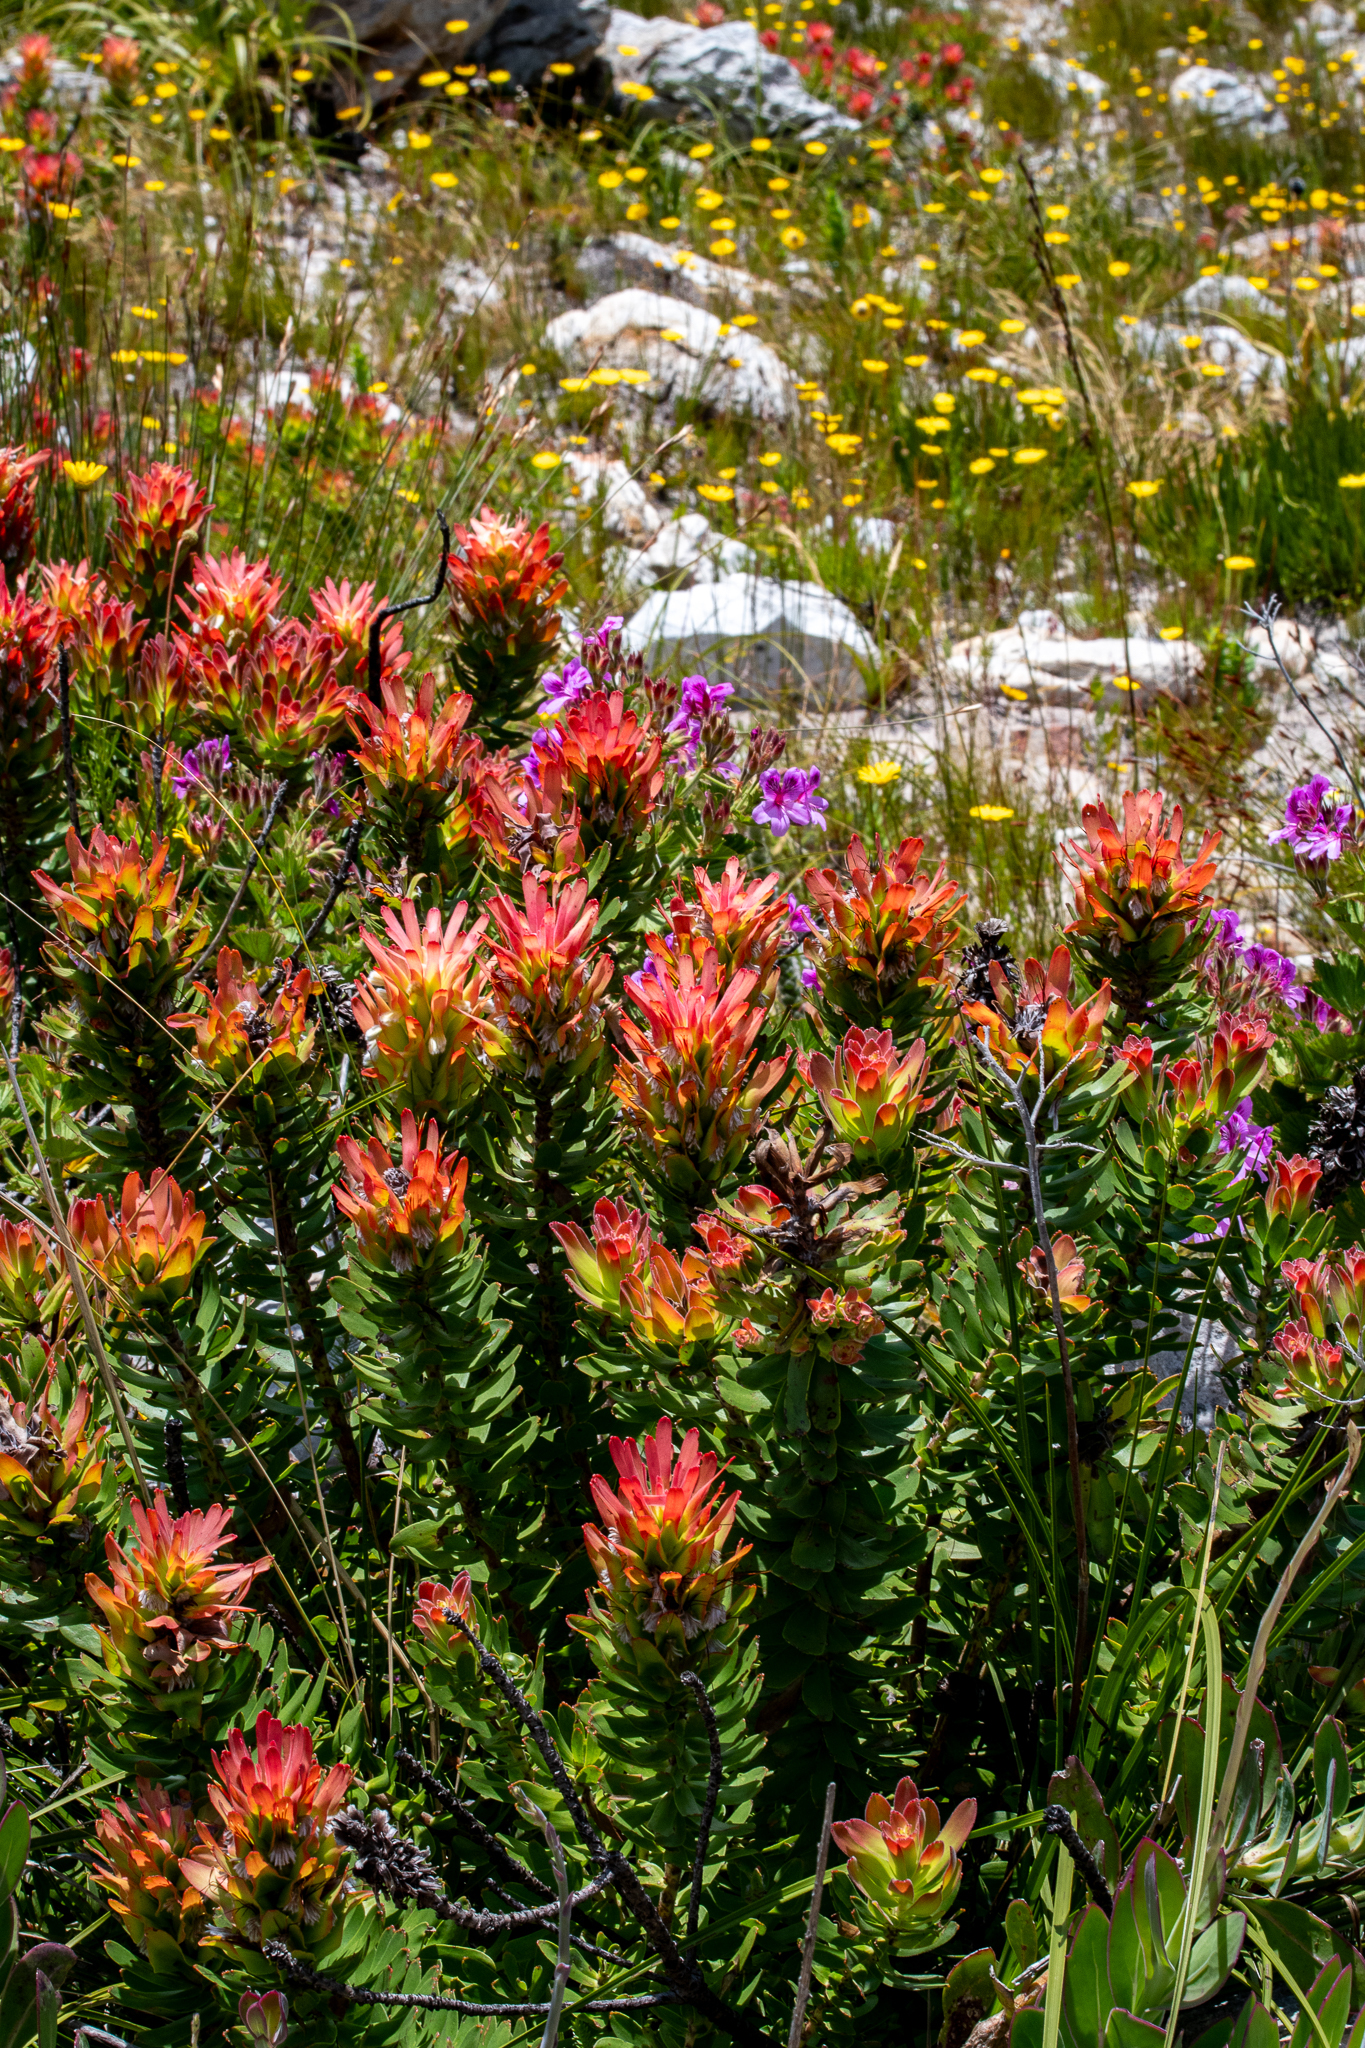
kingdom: Plantae
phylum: Tracheophyta
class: Magnoliopsida
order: Proteales
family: Proteaceae
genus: Mimetes
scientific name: Mimetes cucullatus
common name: Common pagoda
